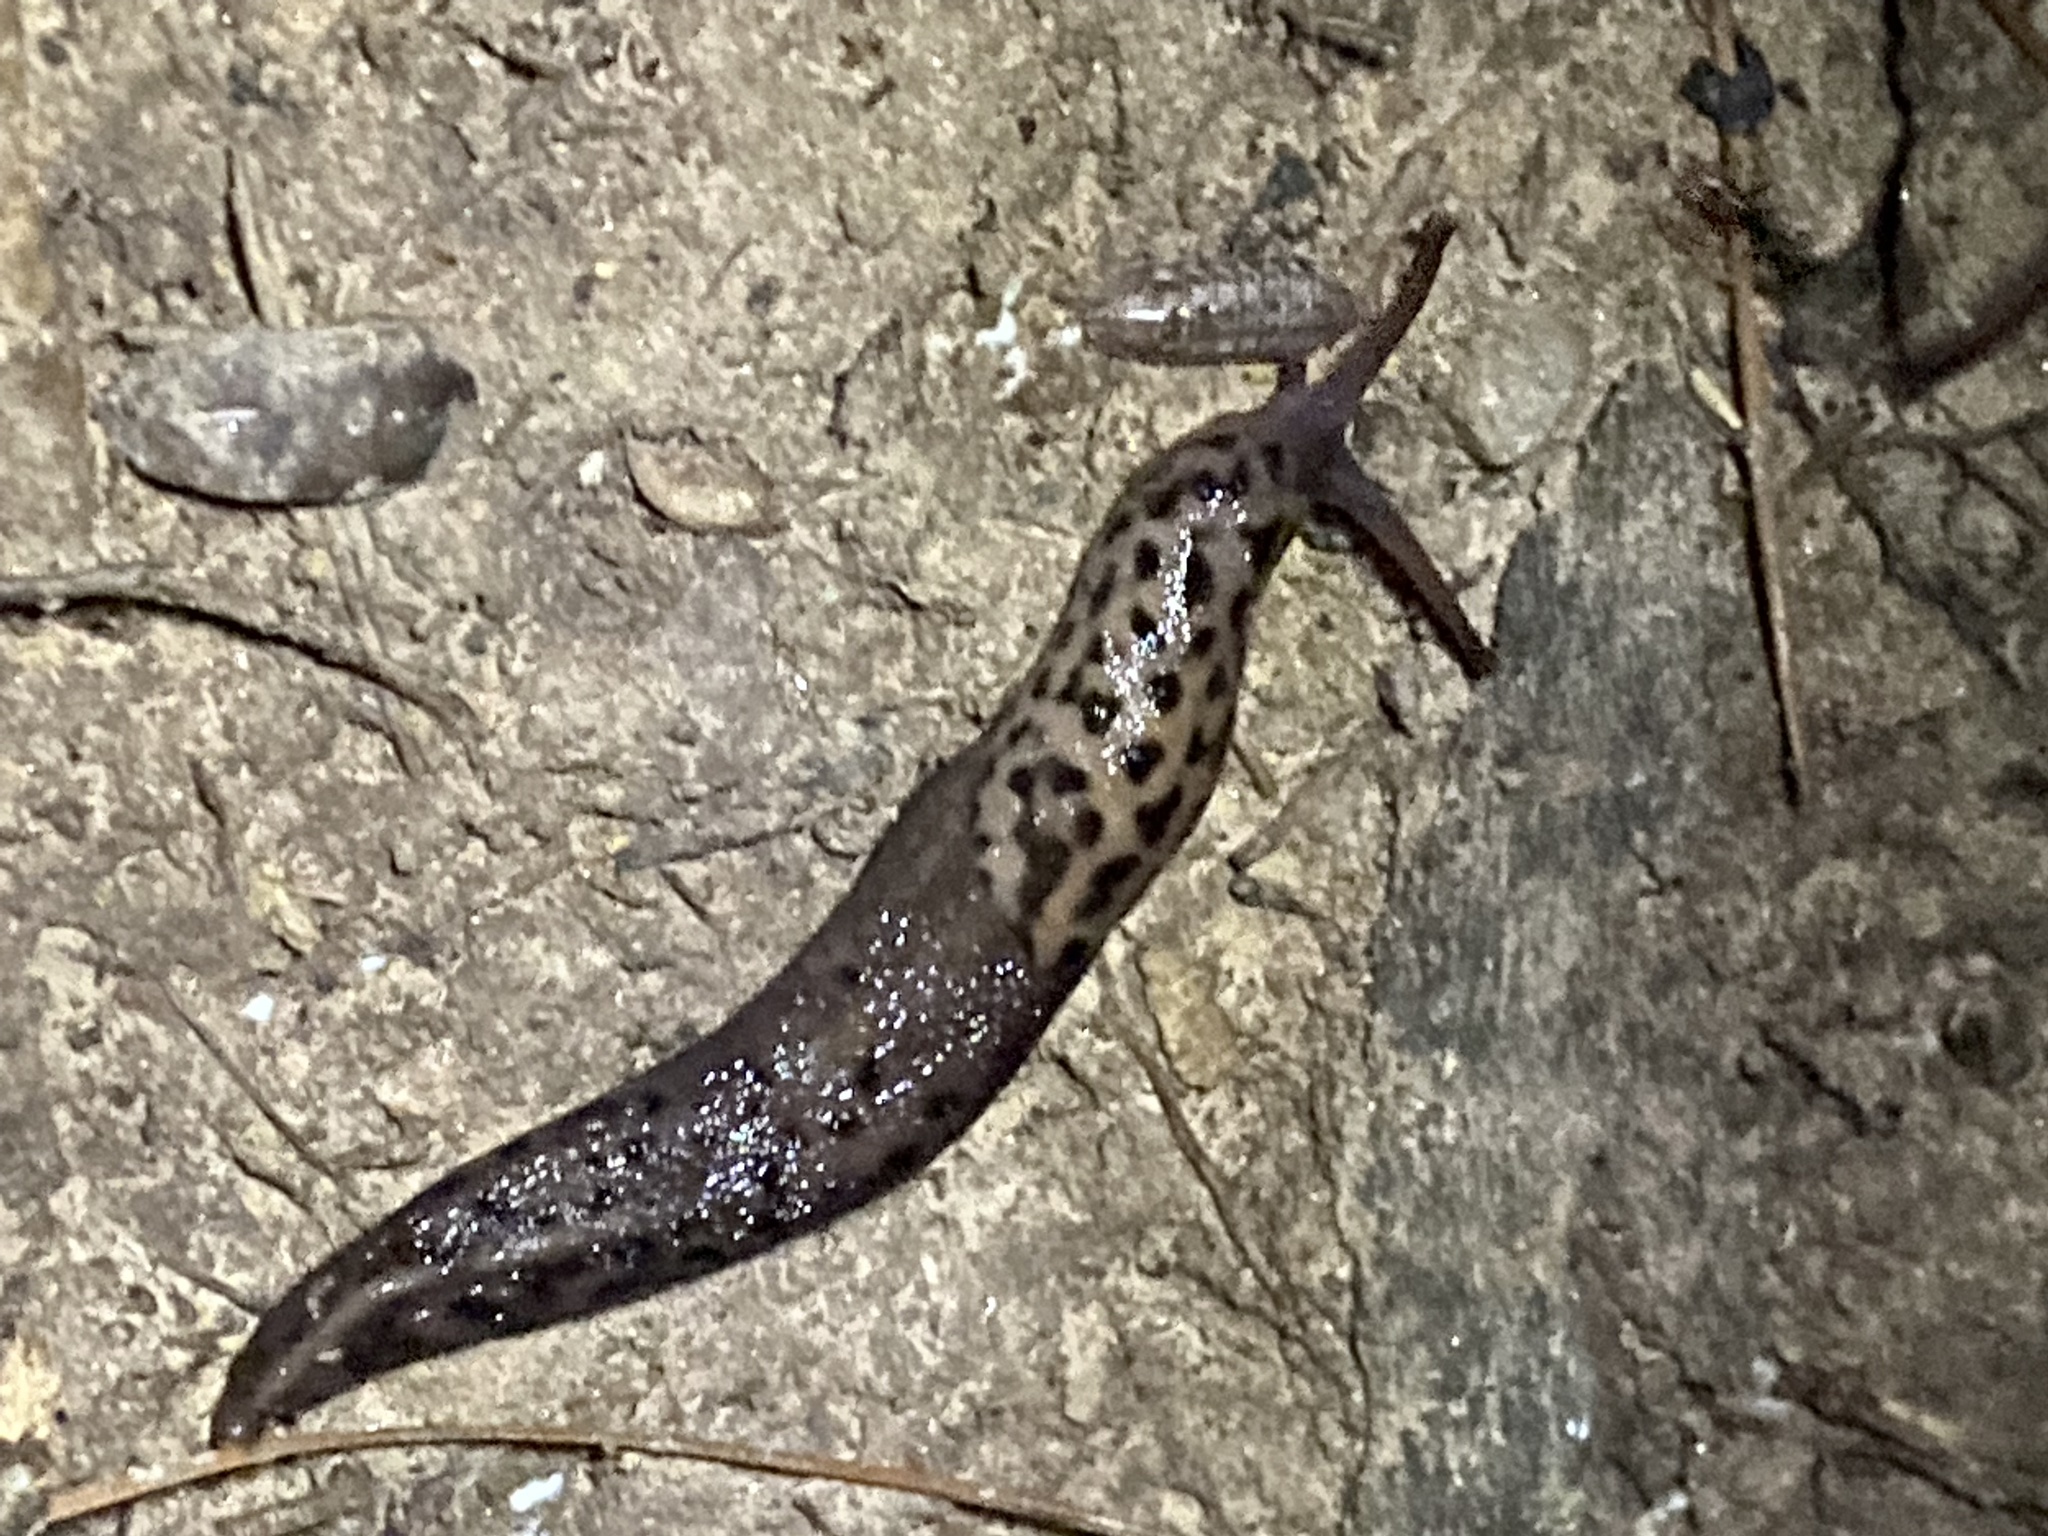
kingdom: Animalia
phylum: Mollusca
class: Gastropoda
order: Stylommatophora
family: Limacidae
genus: Limax
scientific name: Limax maximus
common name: Great grey slug
